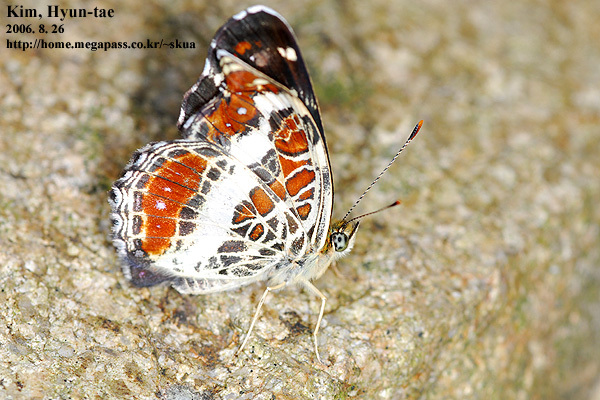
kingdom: Animalia
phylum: Arthropoda
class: Insecta
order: Lepidoptera
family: Nymphalidae
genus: Araschnia
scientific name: Araschnia burejana
